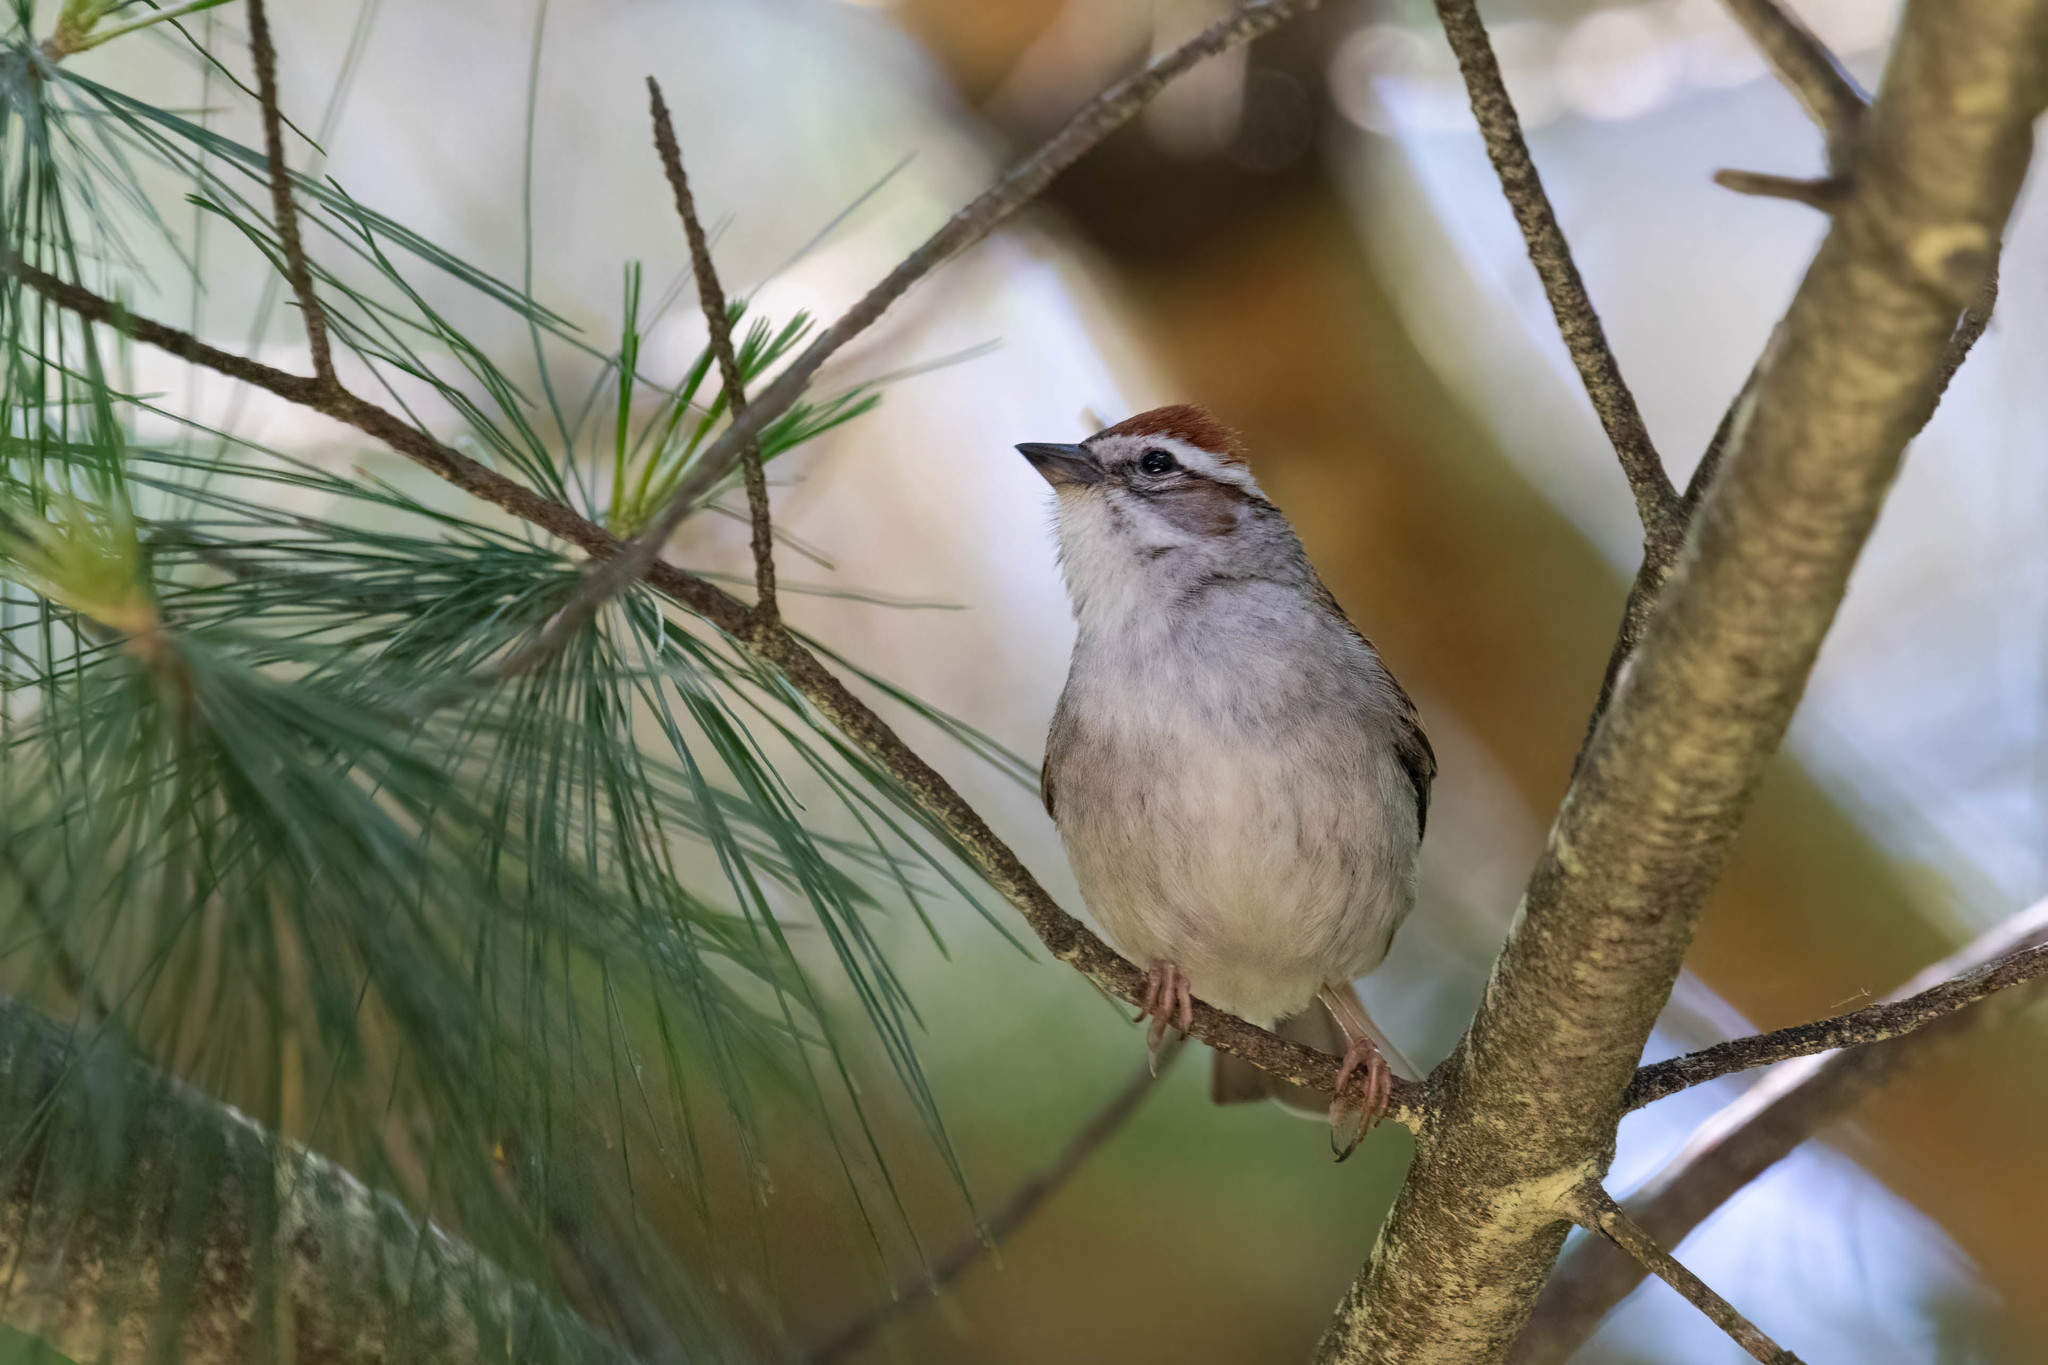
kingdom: Animalia
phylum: Chordata
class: Aves
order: Passeriformes
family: Passerellidae
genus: Spizella
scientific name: Spizella passerina
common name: Chipping sparrow
